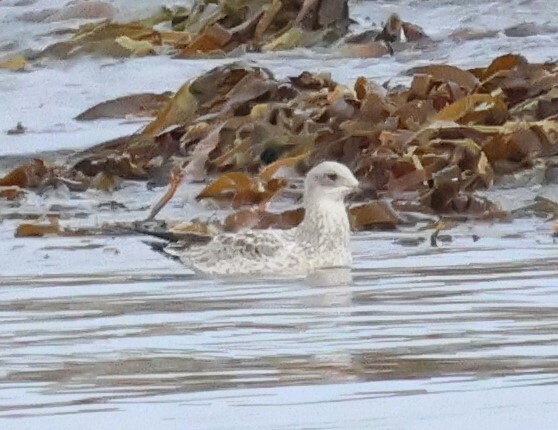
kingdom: Animalia
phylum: Chordata
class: Aves
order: Charadriiformes
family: Laridae
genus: Larus
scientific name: Larus delawarensis
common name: Ring-billed gull
